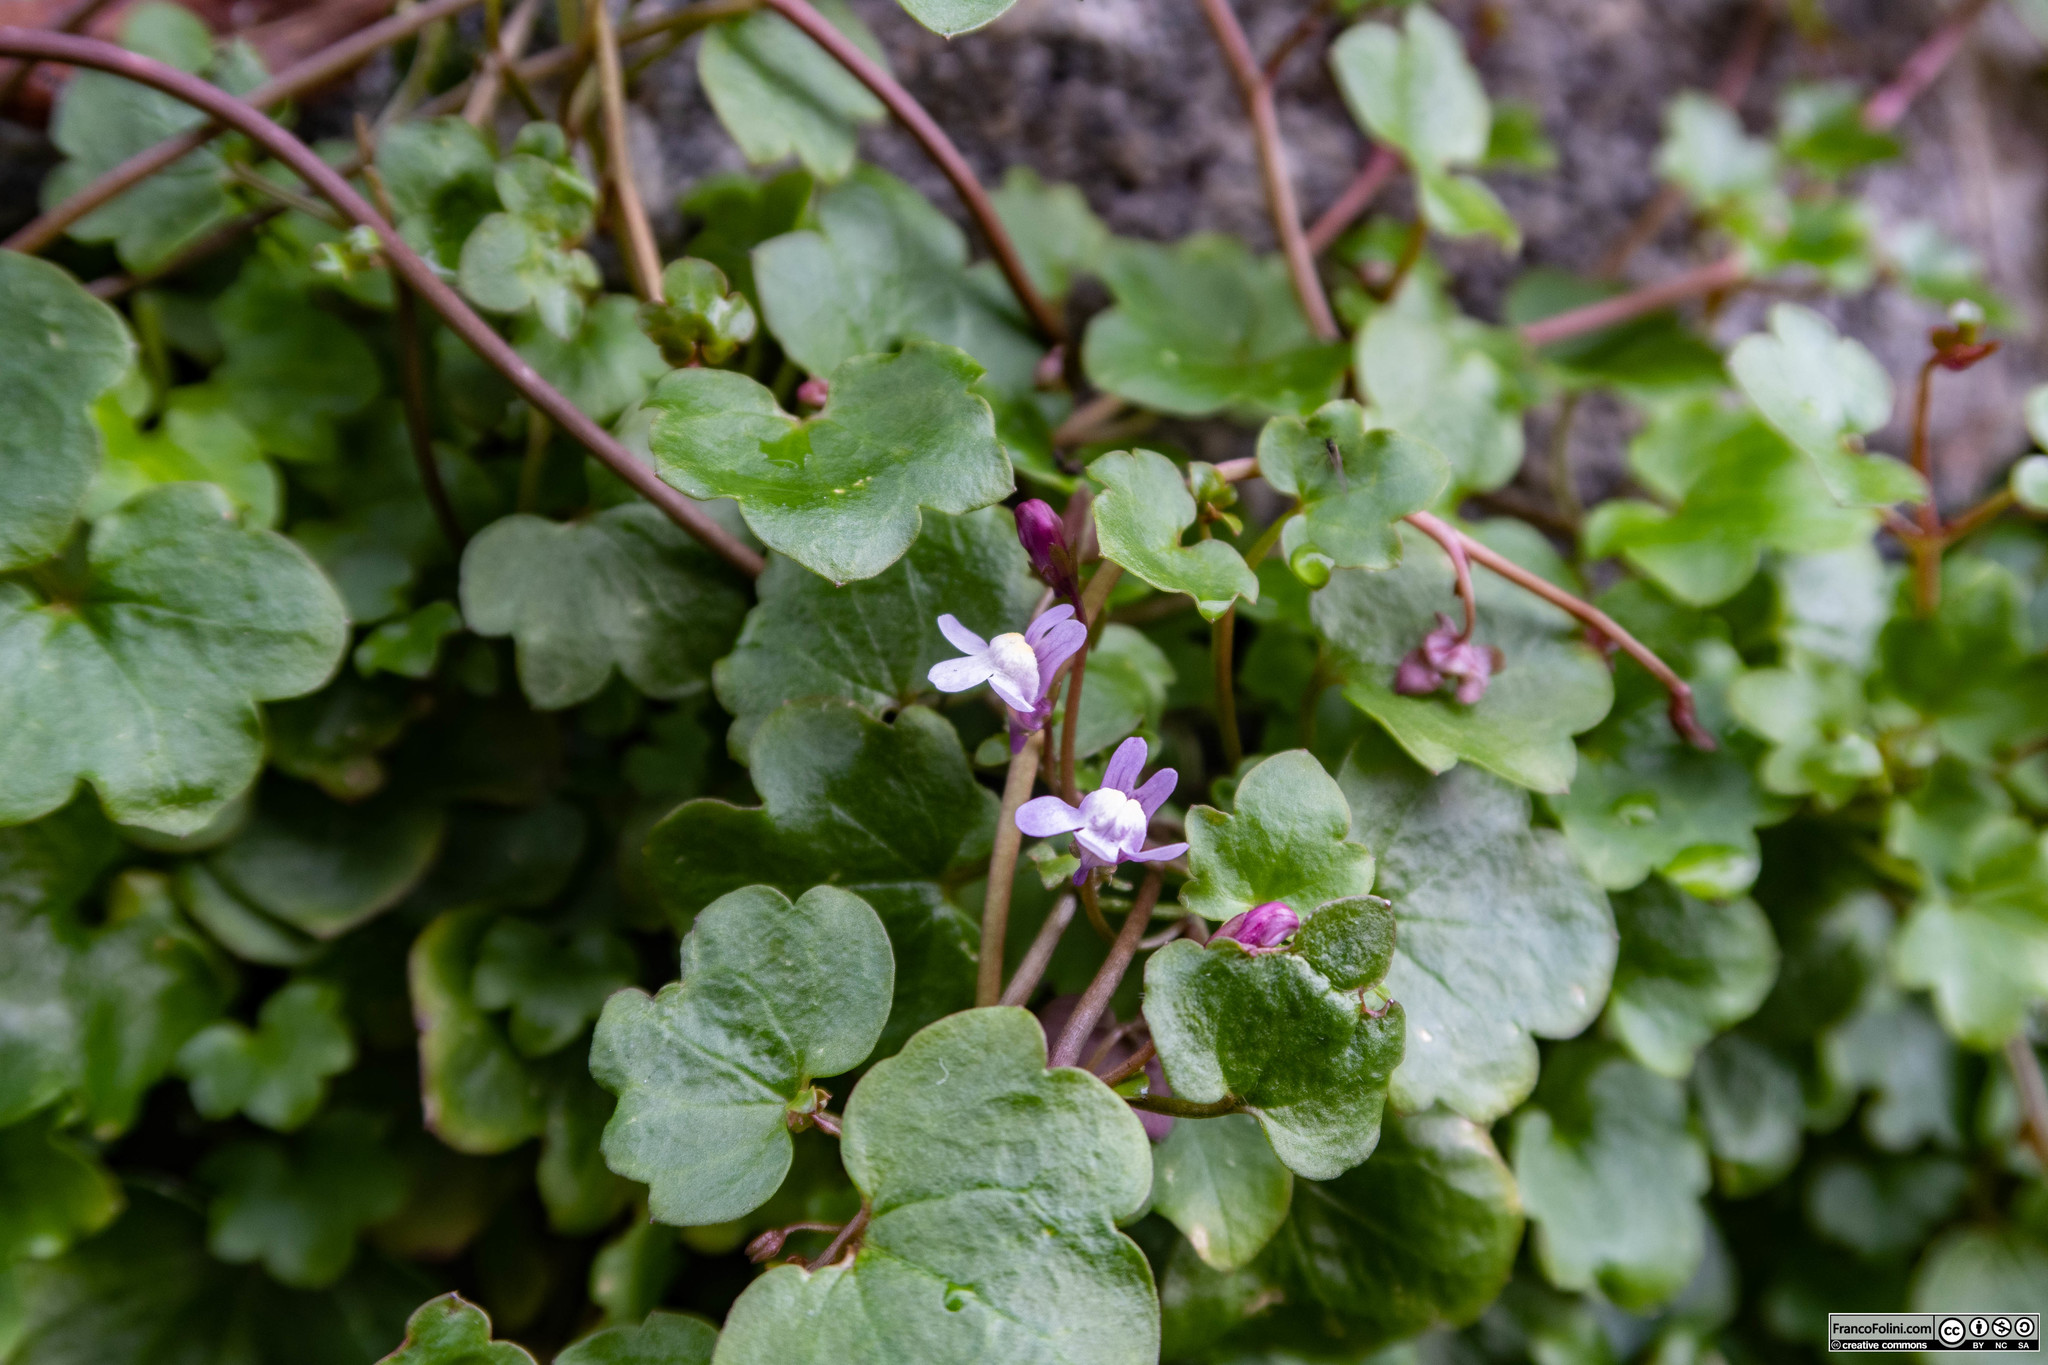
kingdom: Plantae
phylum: Tracheophyta
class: Magnoliopsida
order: Lamiales
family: Plantaginaceae
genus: Cymbalaria
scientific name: Cymbalaria muralis
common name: Ivy-leaved toadflax
